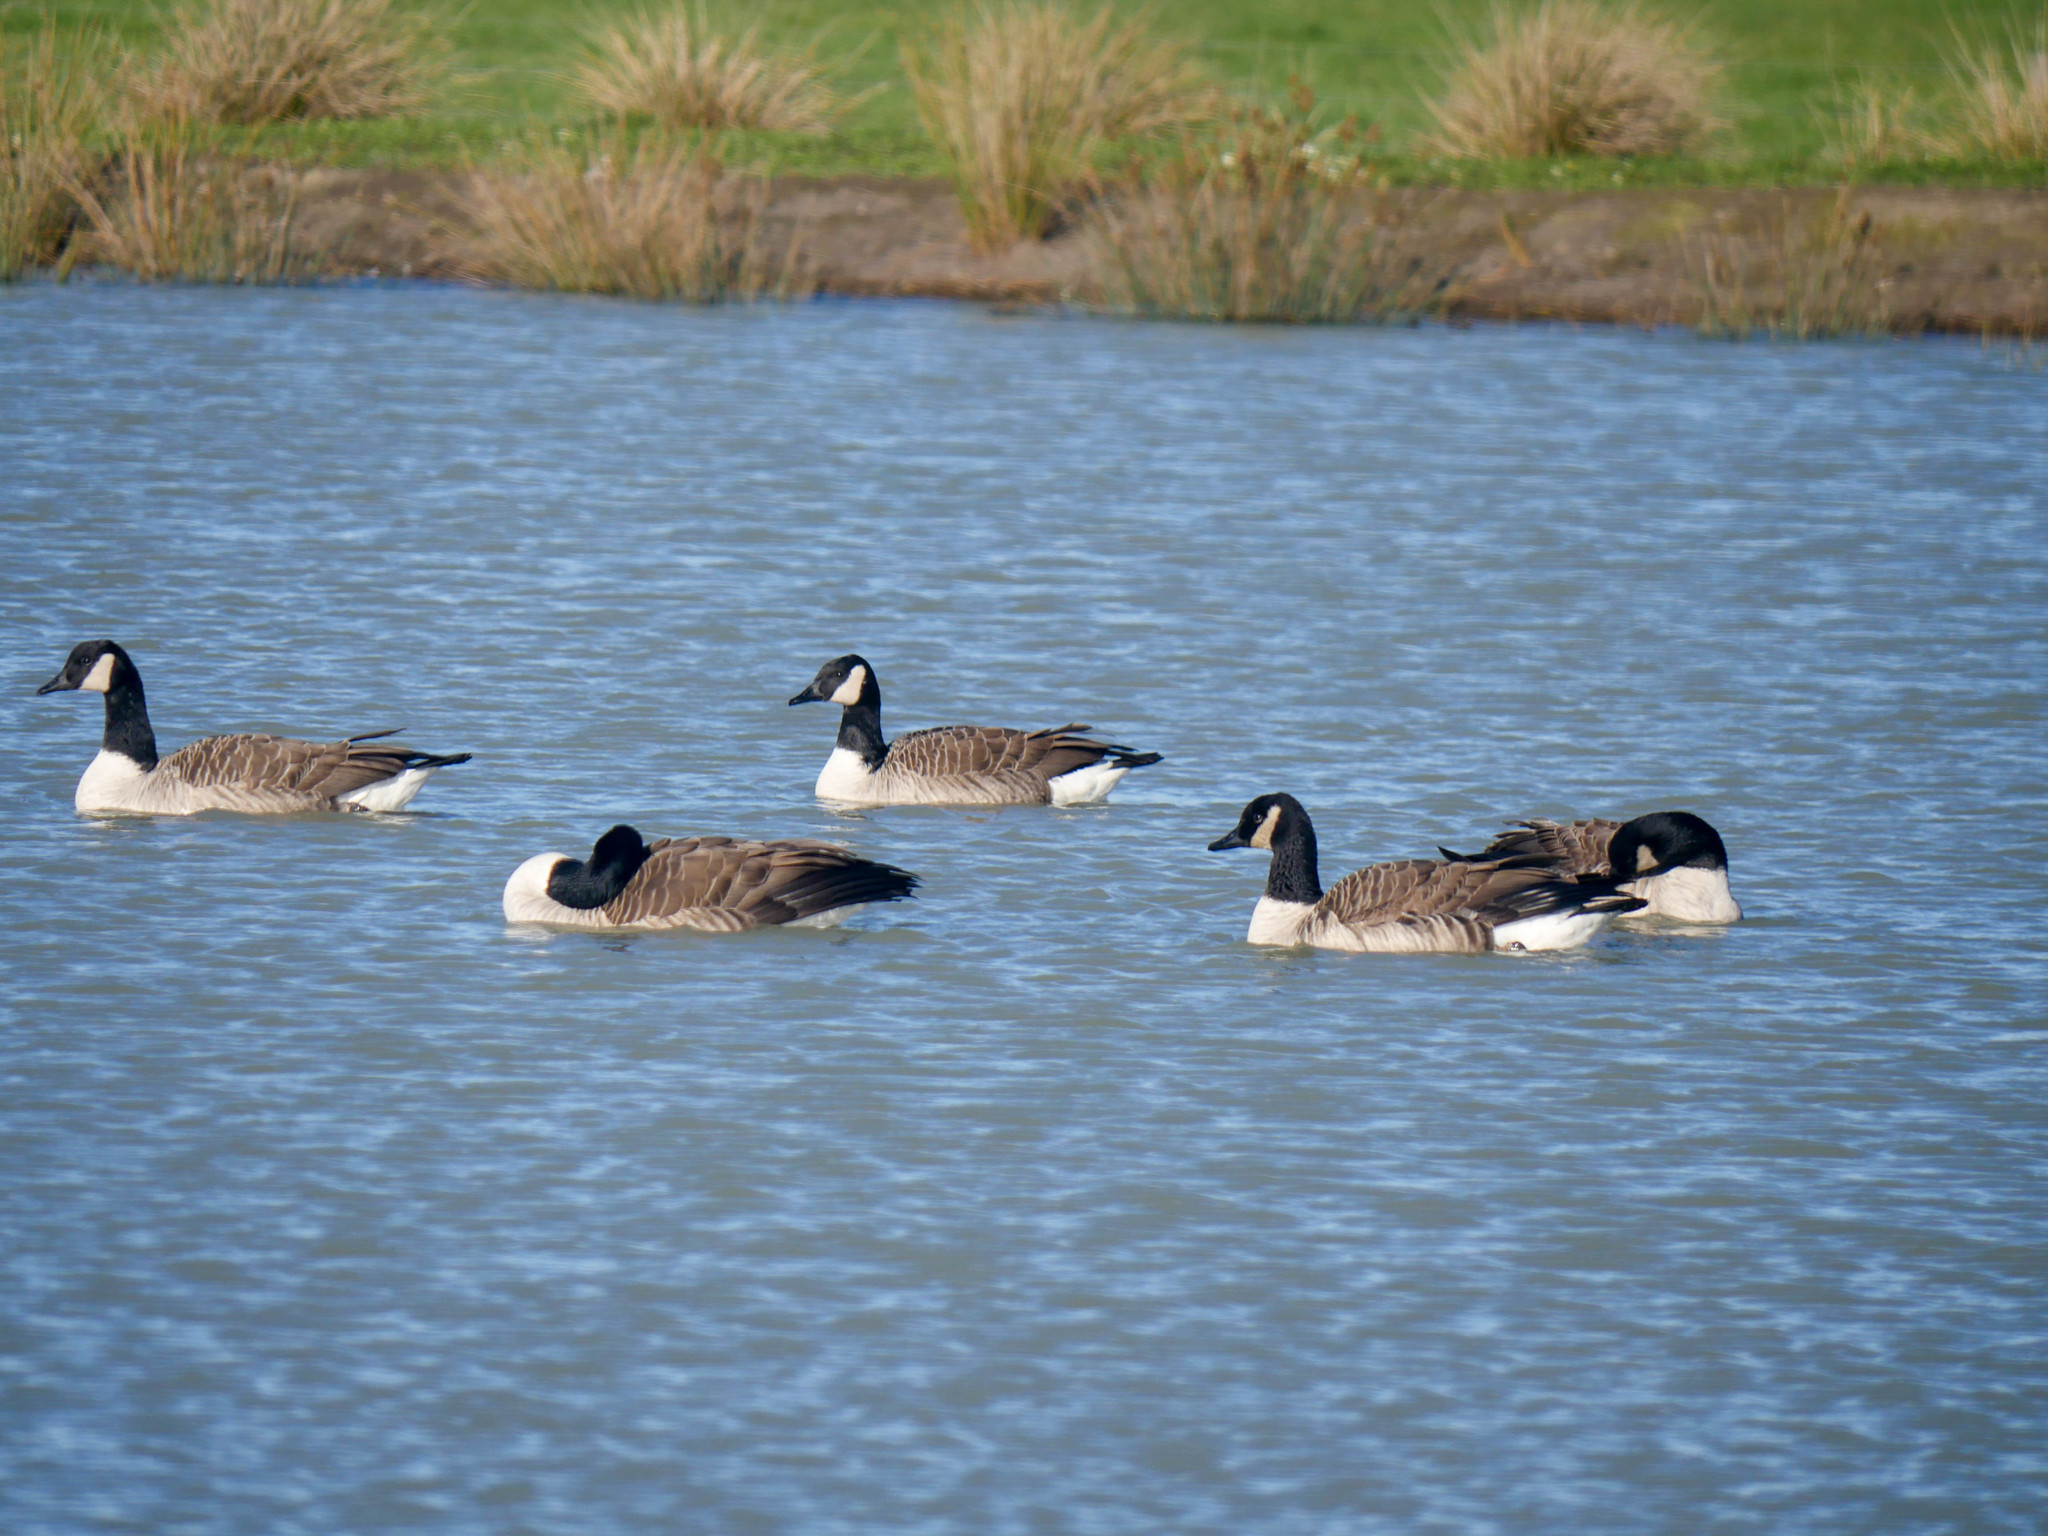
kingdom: Animalia
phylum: Chordata
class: Aves
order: Anseriformes
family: Anatidae
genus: Branta
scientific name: Branta canadensis
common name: Canada goose
